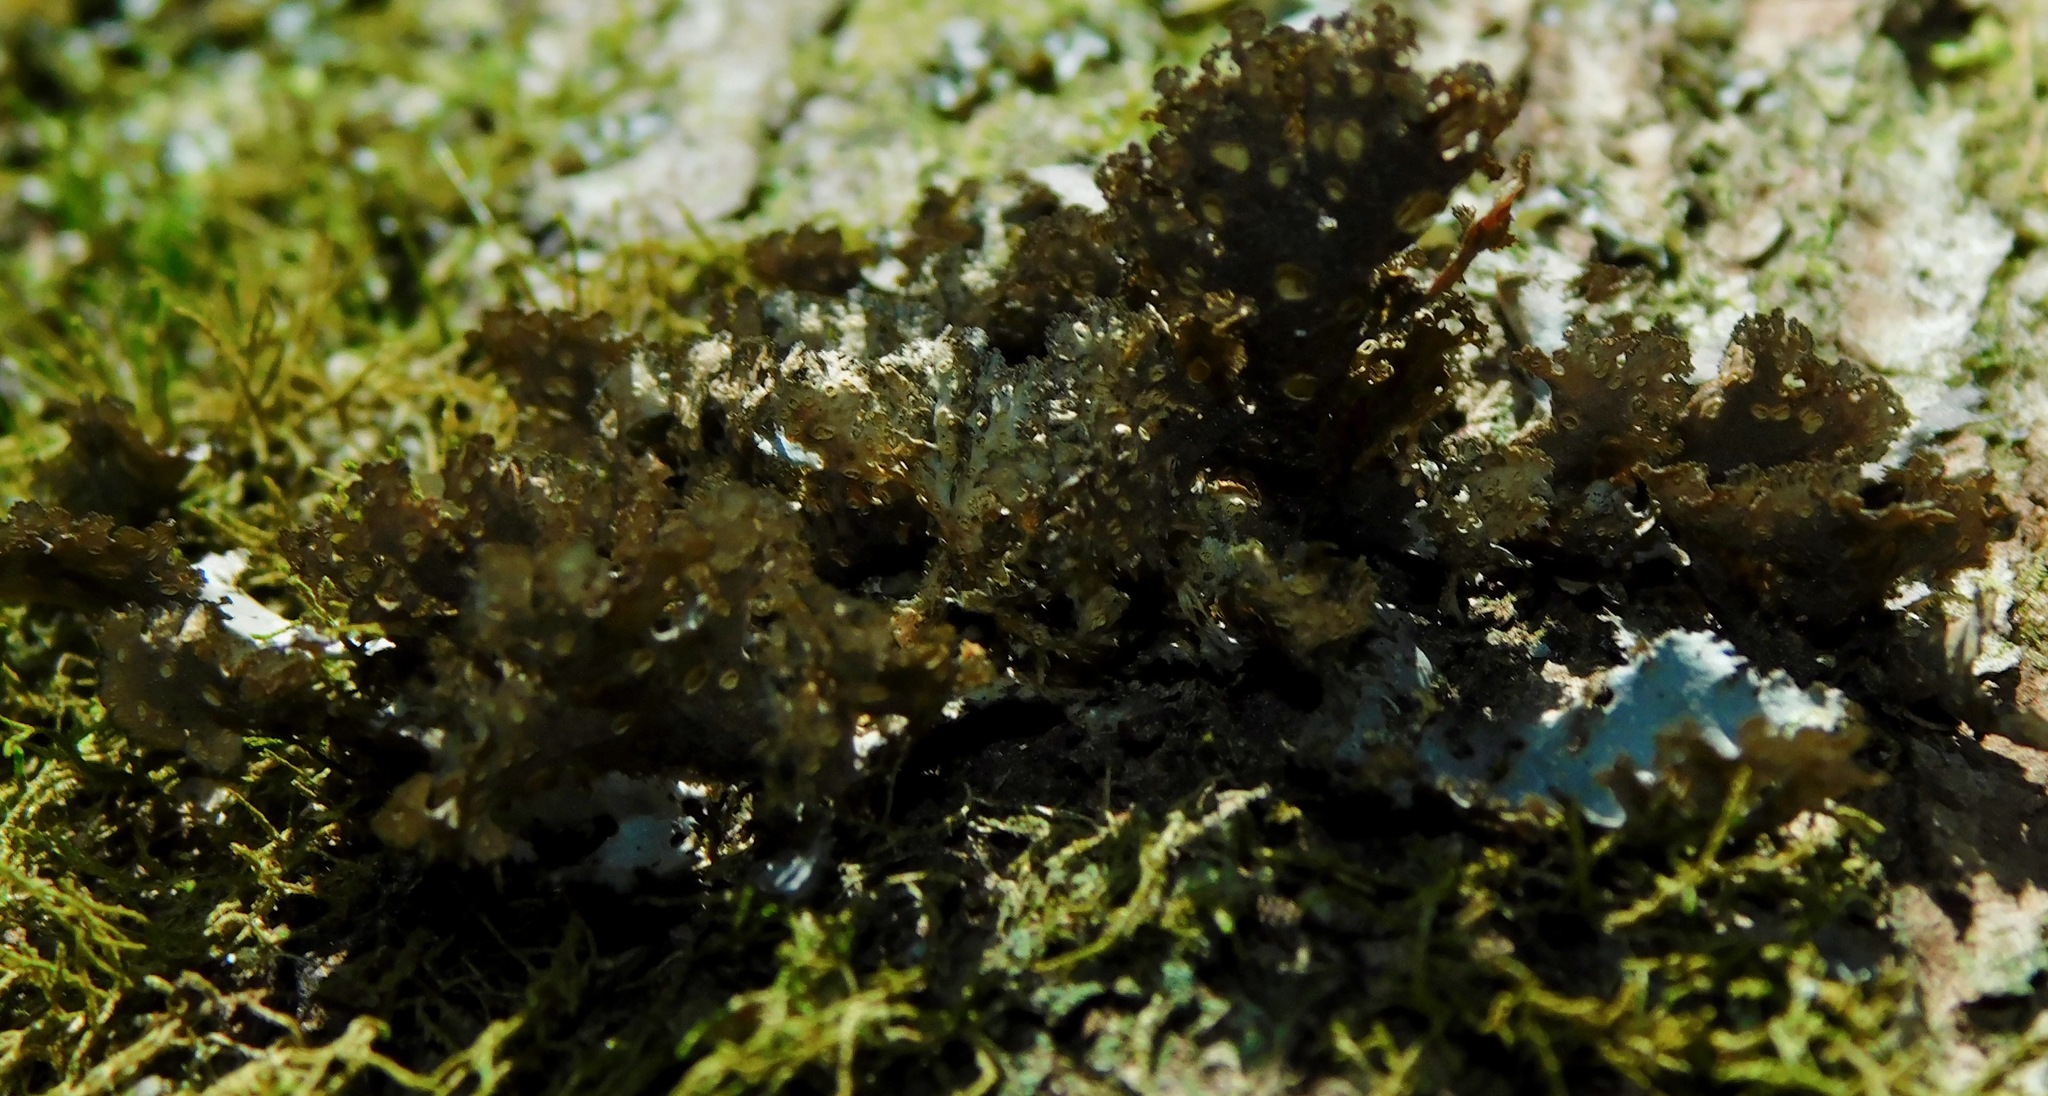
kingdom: Fungi
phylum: Ascomycota
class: Lecanoromycetes
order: Peltigerales
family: Lobariaceae
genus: Sticta
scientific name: Sticta fragilinata
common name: Tammy's pumpkin pails
